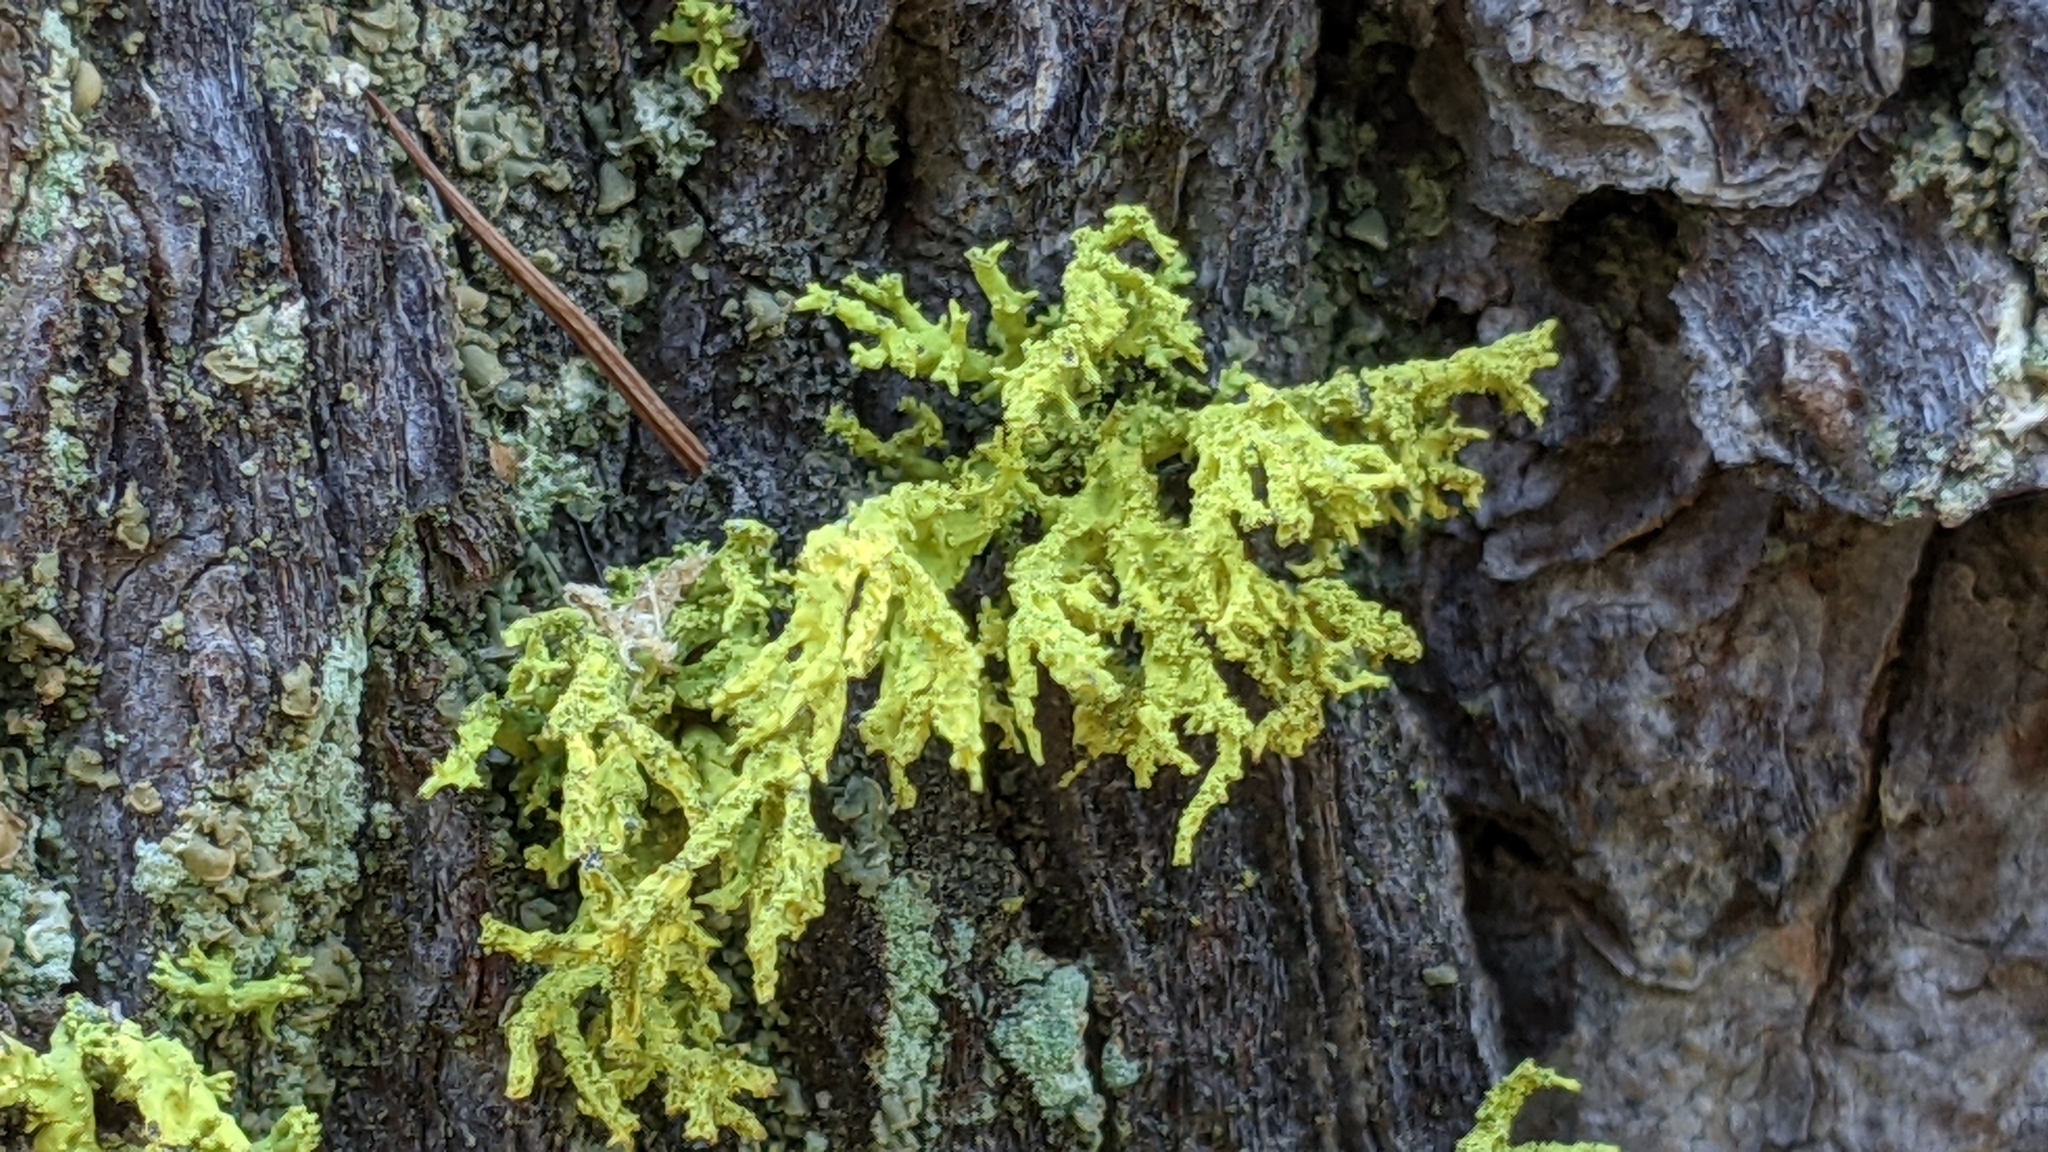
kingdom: Fungi
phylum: Ascomycota
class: Lecanoromycetes
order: Lecanorales
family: Parmeliaceae
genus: Letharia
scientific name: Letharia vulpina
